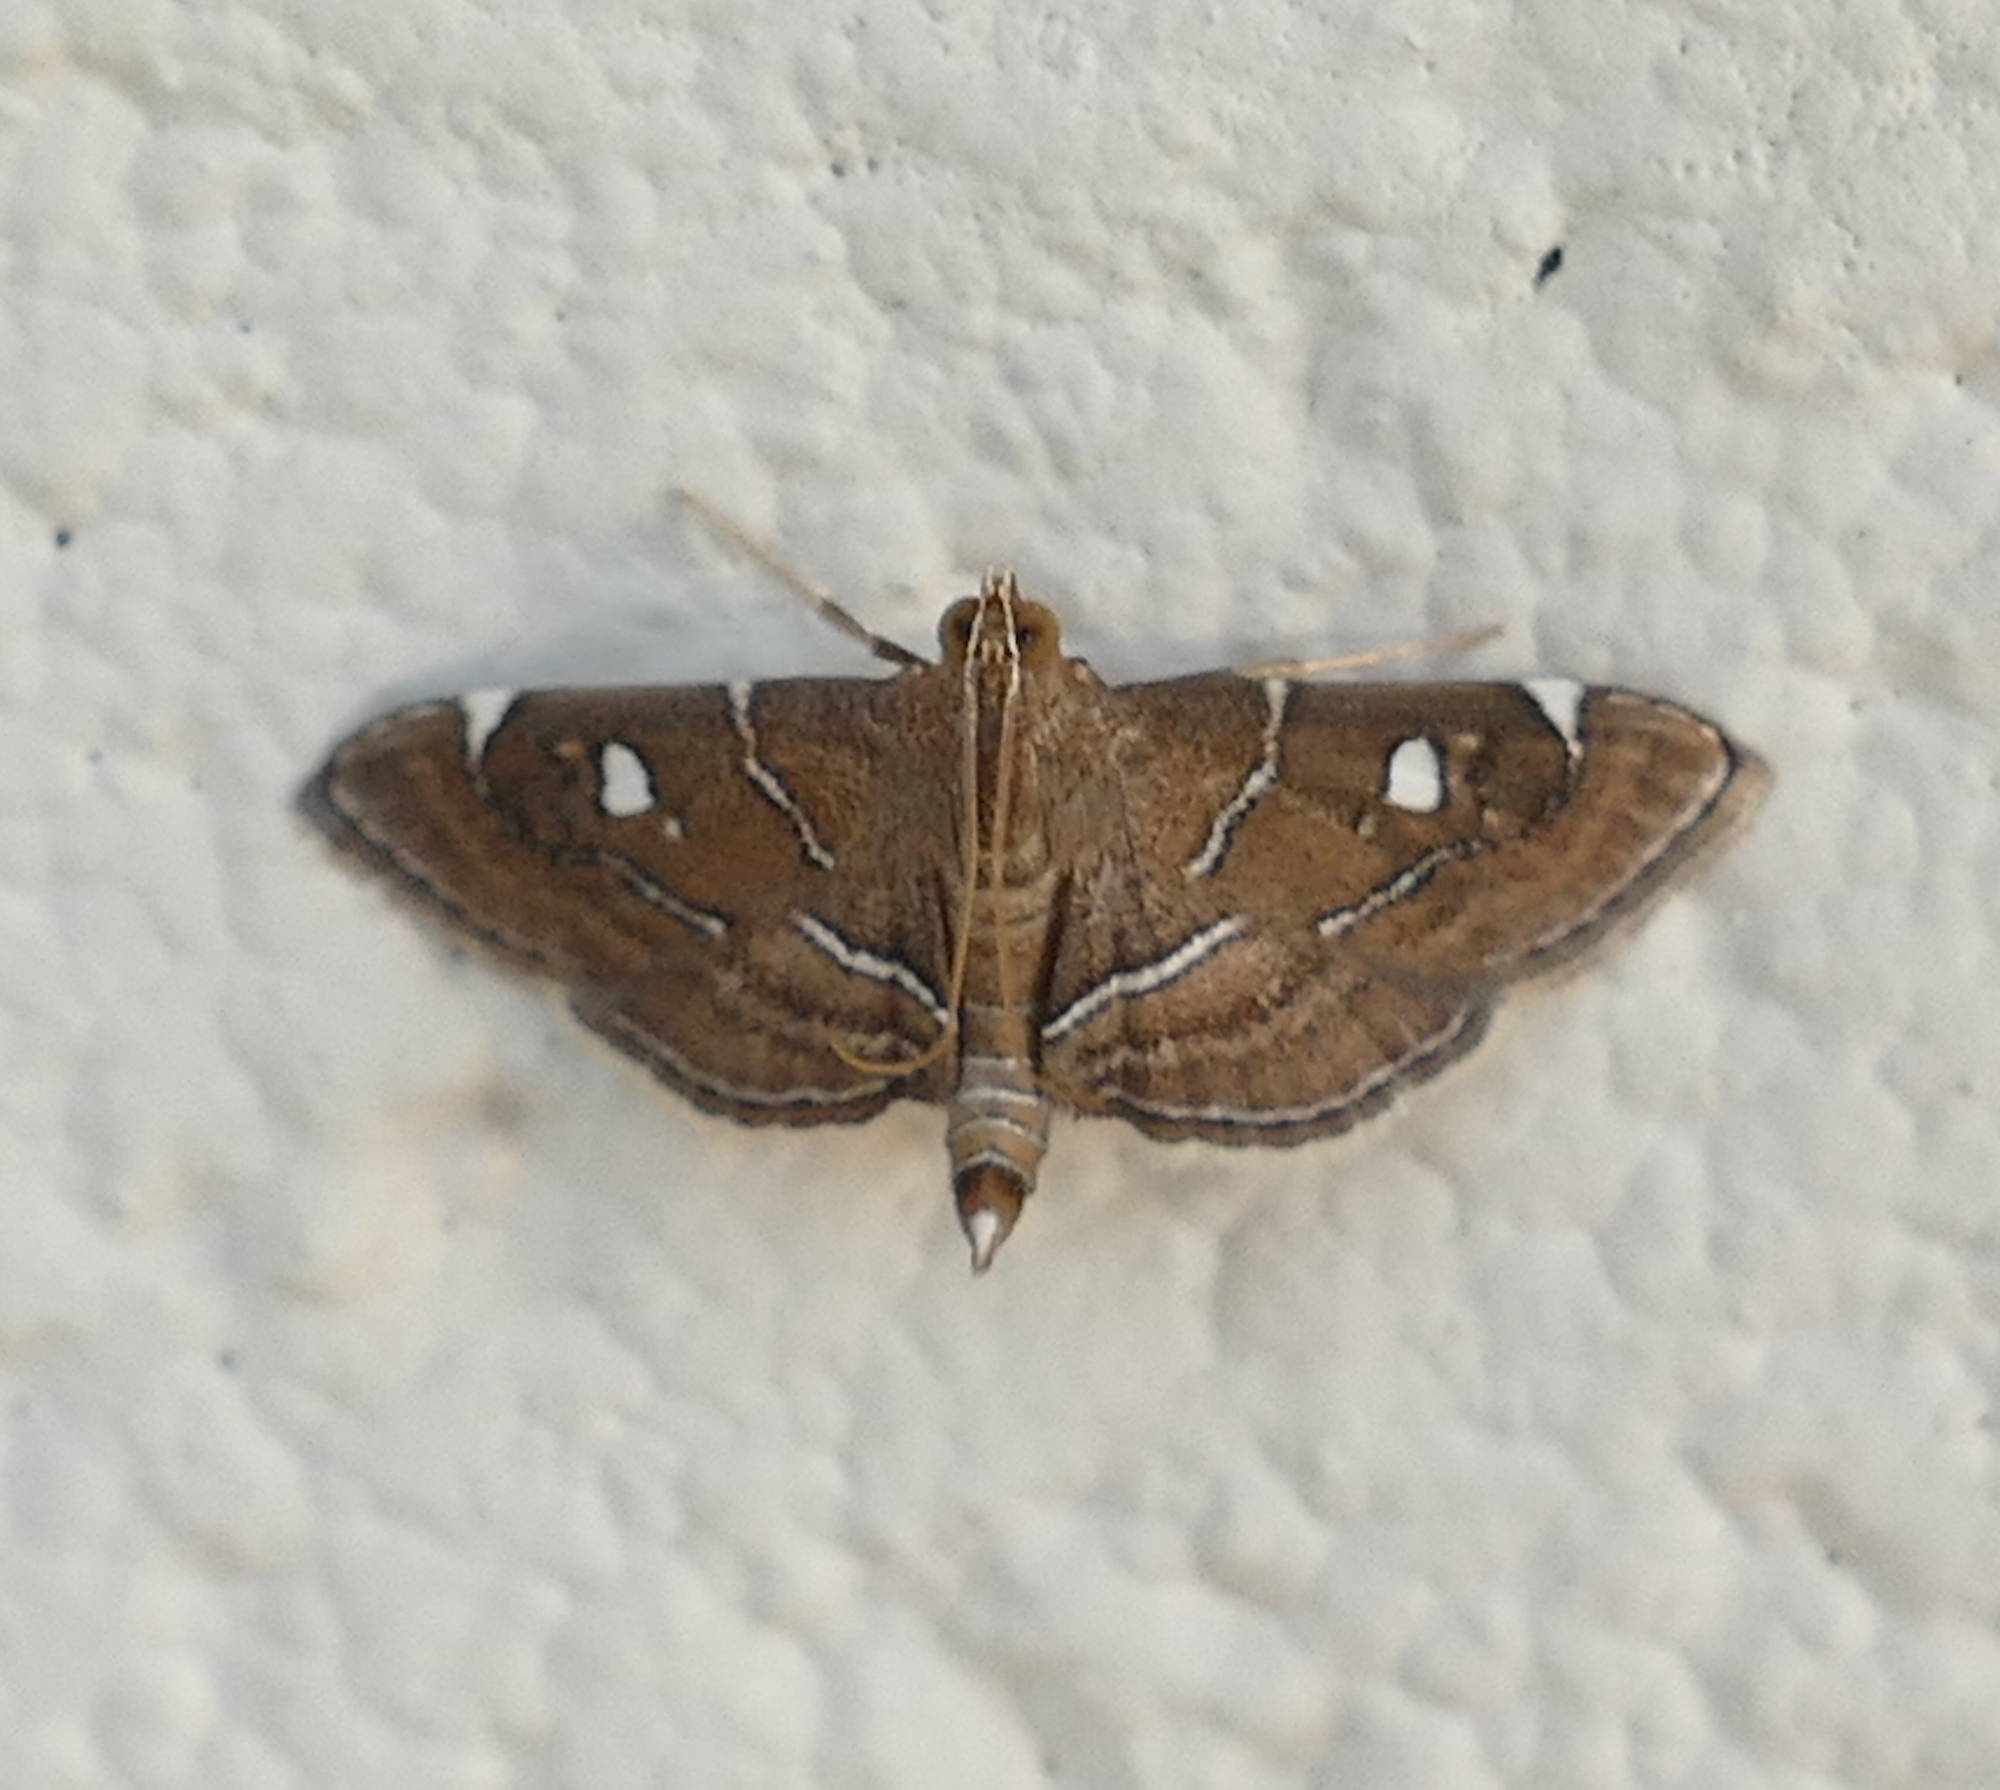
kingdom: Animalia
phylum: Arthropoda
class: Insecta
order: Lepidoptera
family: Crambidae
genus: Lamprosema
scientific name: Lamprosema victoriae
